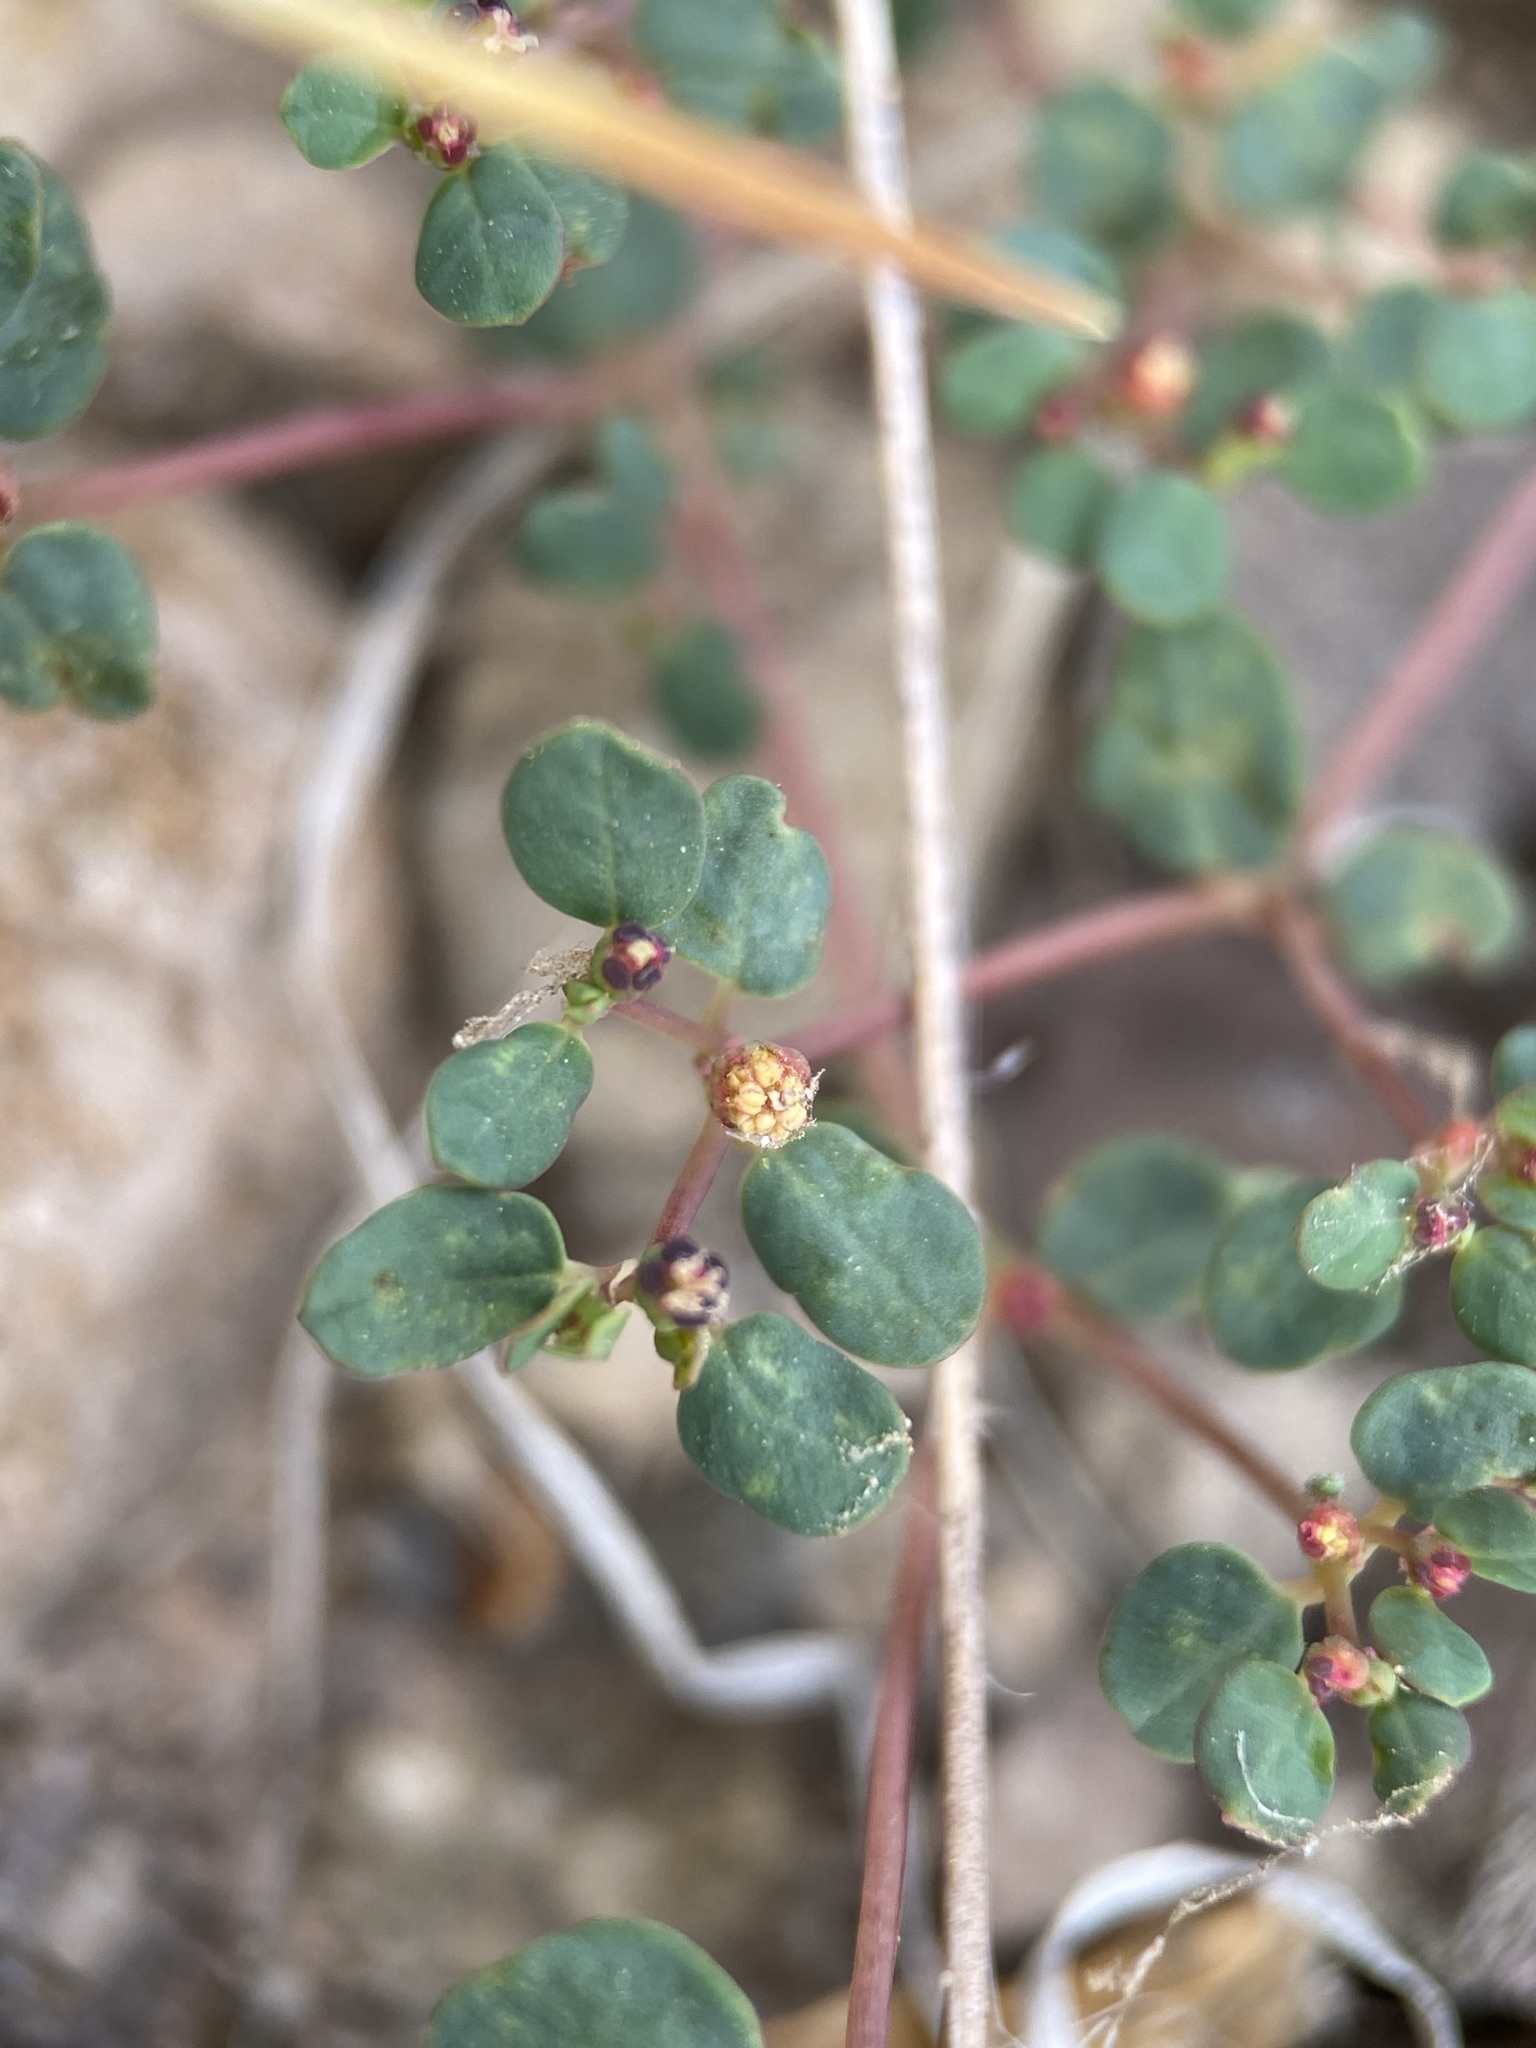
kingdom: Plantae
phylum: Tracheophyta
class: Magnoliopsida
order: Malpighiales
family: Euphorbiaceae
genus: Euphorbia
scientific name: Euphorbia simulans
